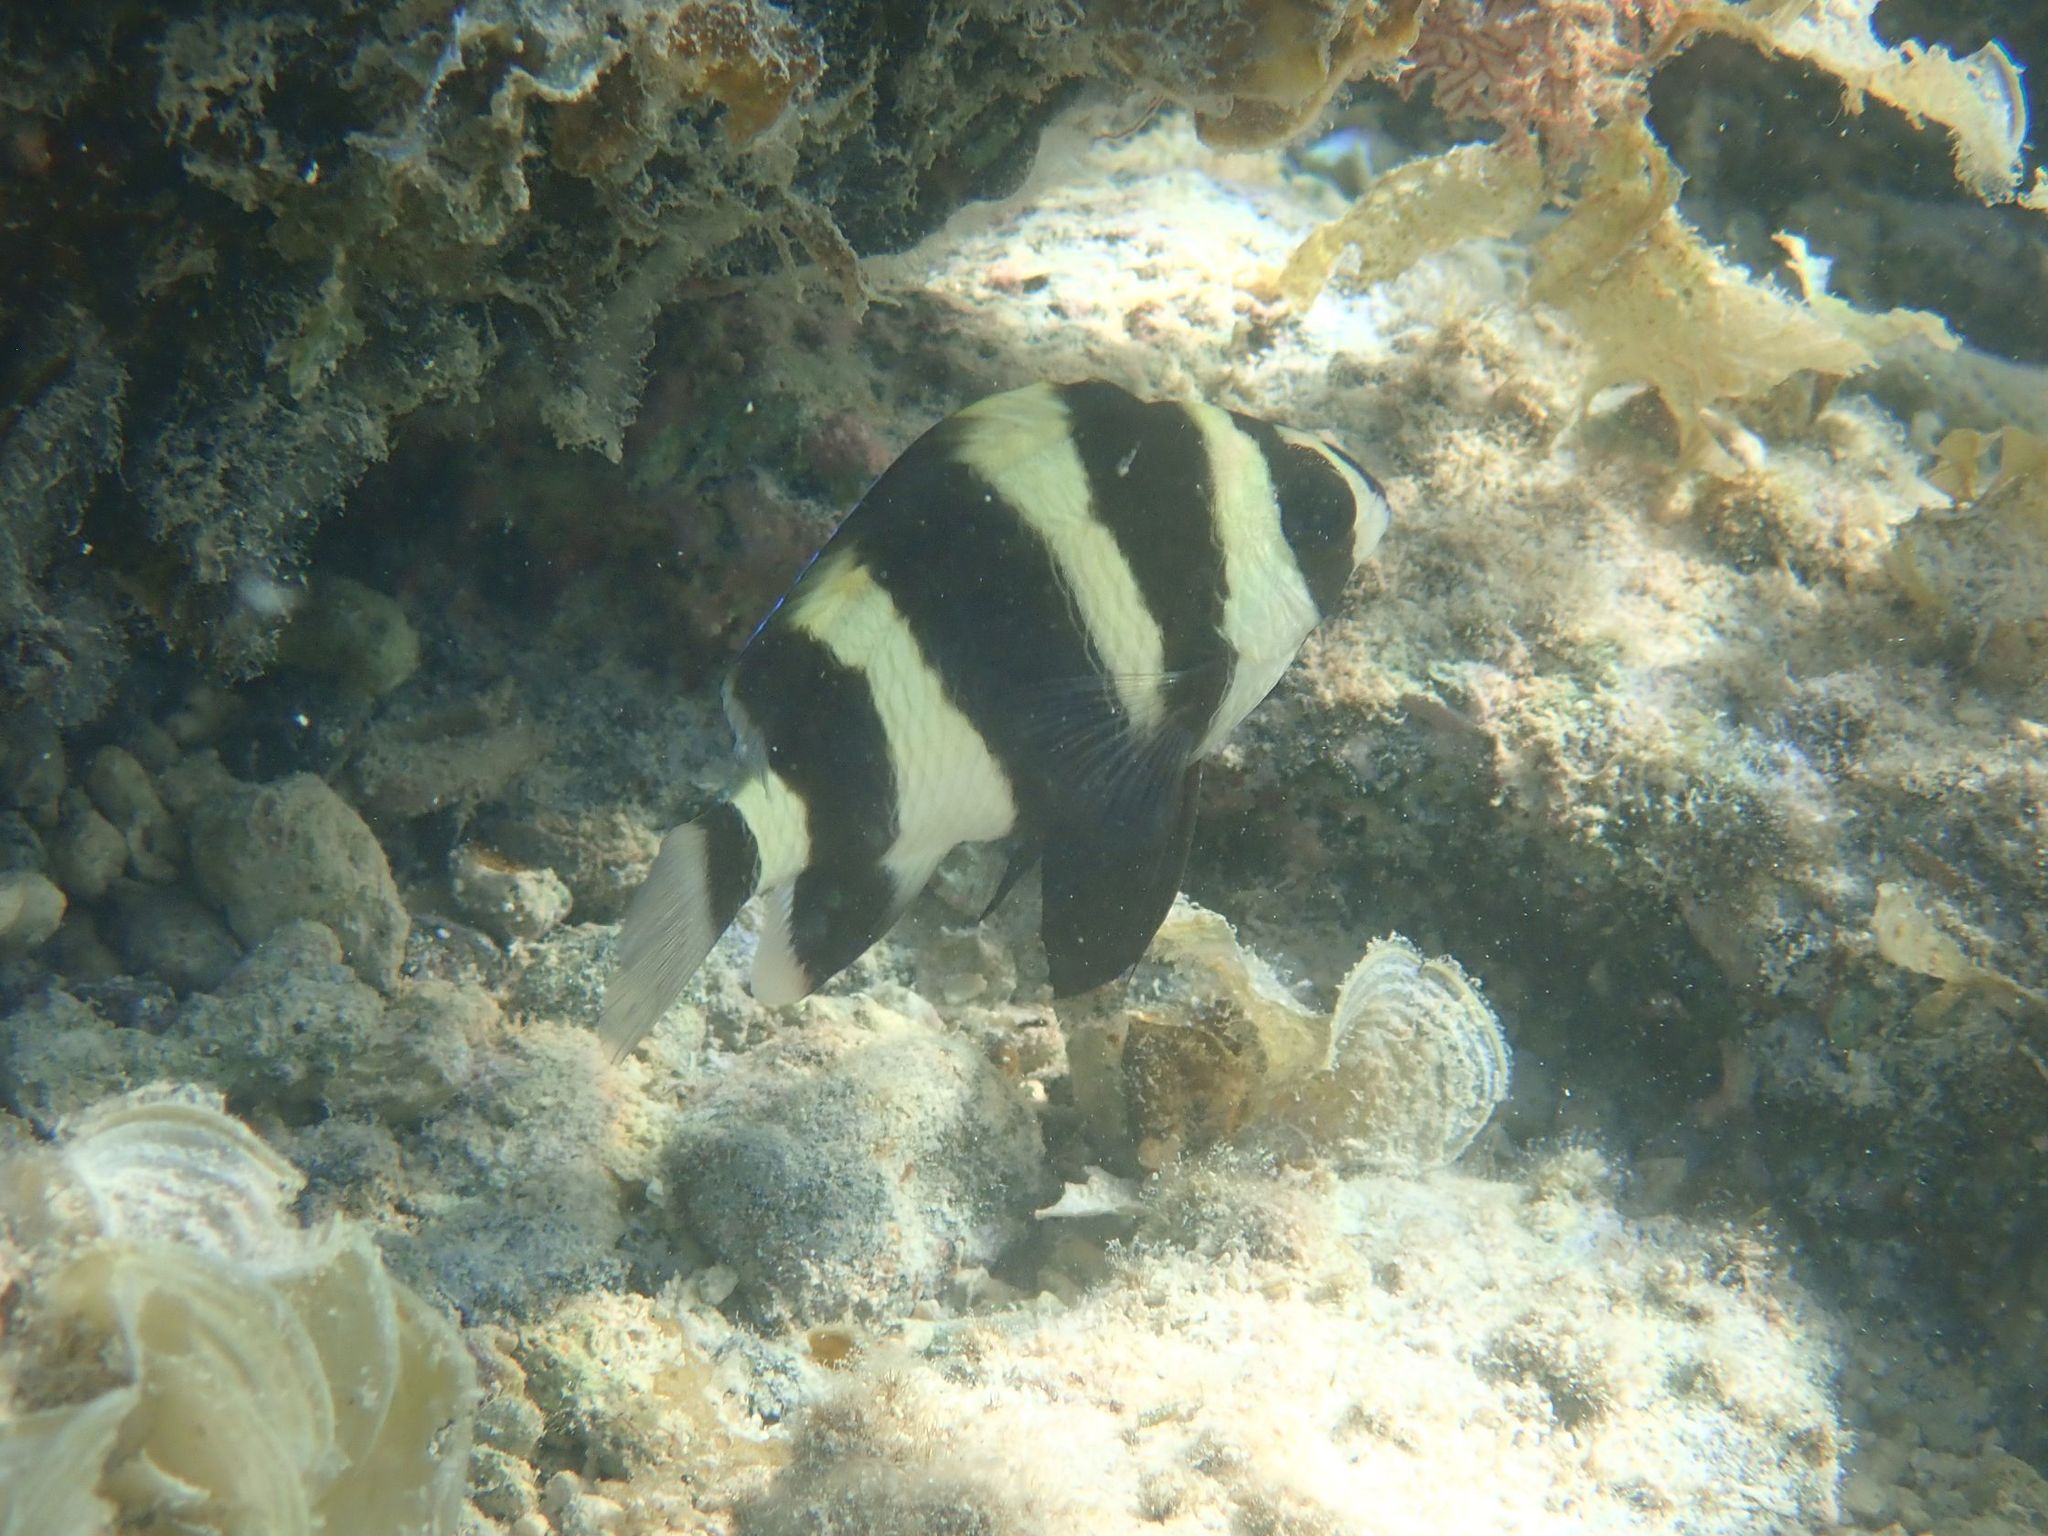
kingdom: Animalia
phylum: Chordata
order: Perciformes
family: Pomacentridae
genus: Amblypomacentrus
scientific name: Amblypomacentrus
